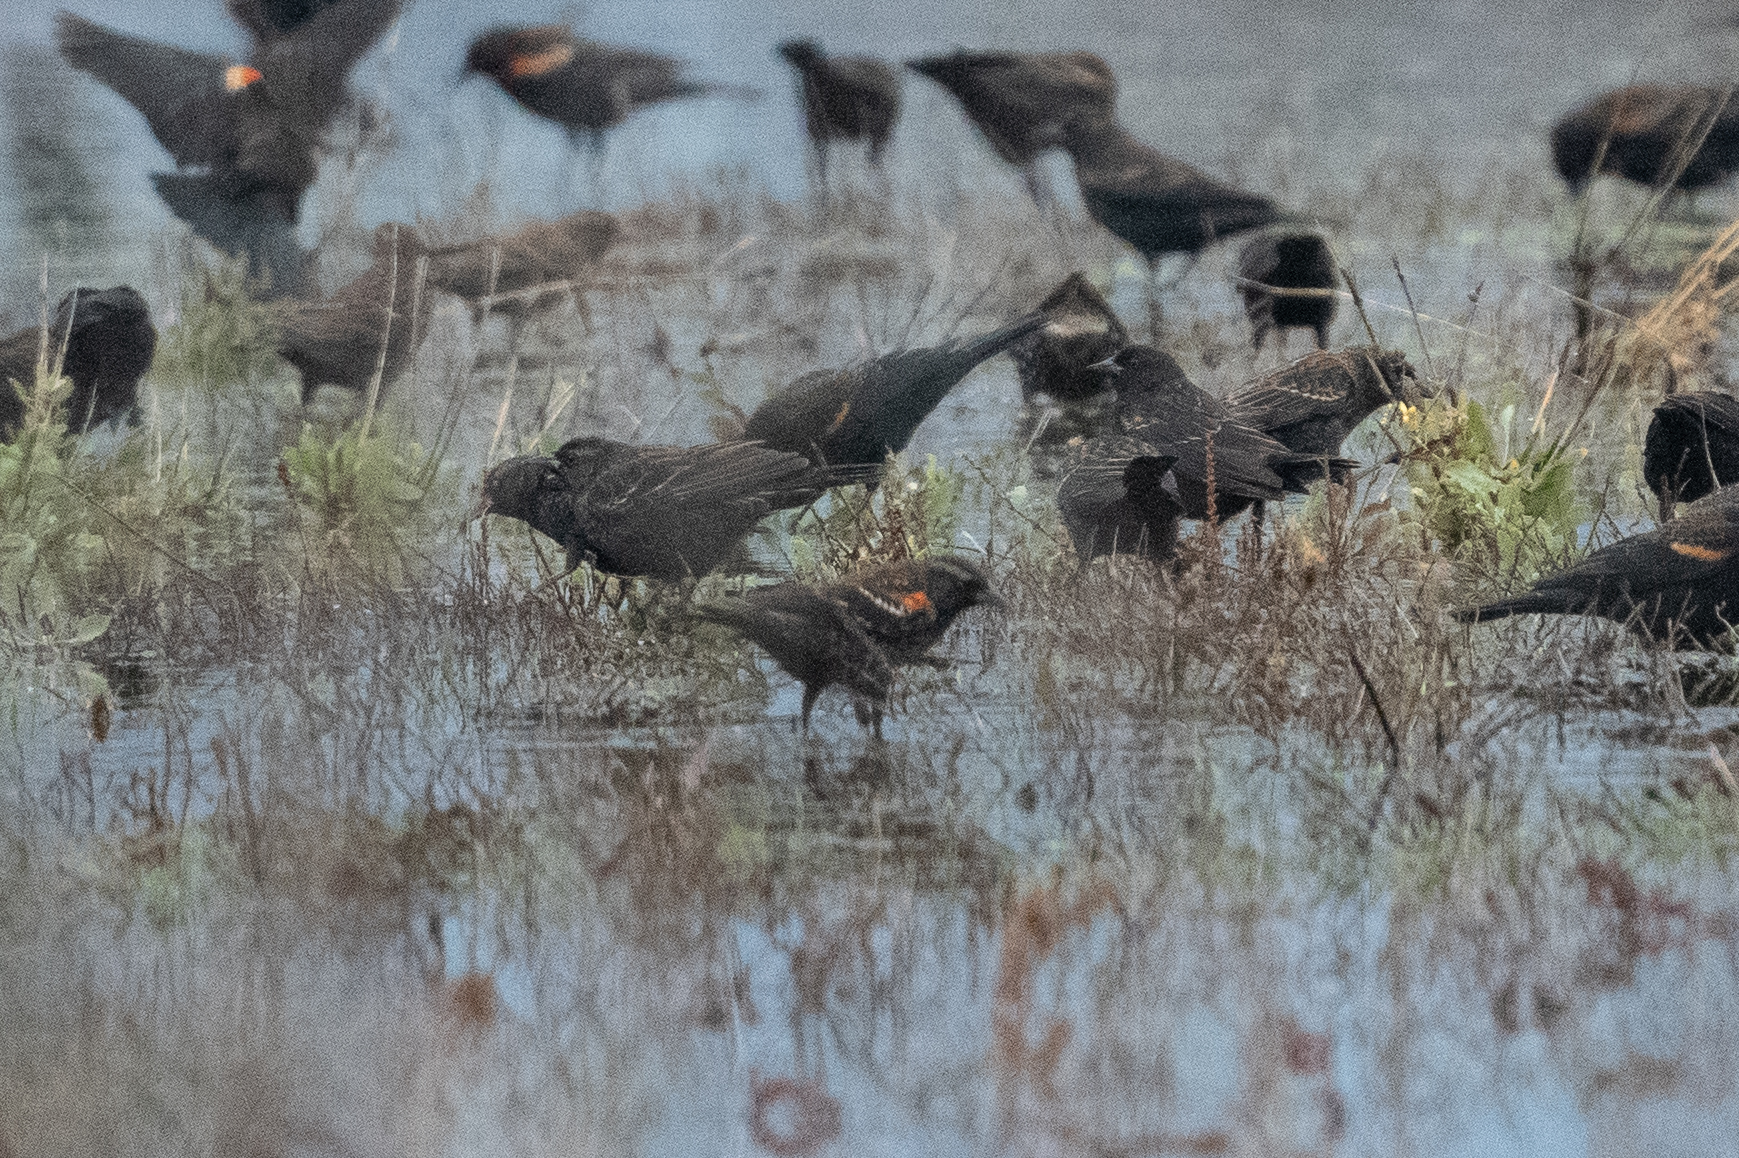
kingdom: Animalia
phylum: Chordata
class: Aves
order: Passeriformes
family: Icteridae
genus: Agelaius
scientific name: Agelaius tricolor
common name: Tricolored blackbird
